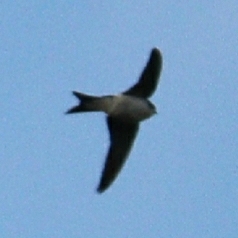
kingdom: Animalia
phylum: Chordata
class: Aves
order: Passeriformes
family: Hirundinidae
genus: Delichon
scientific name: Delichon urbicum
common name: Common house martin
